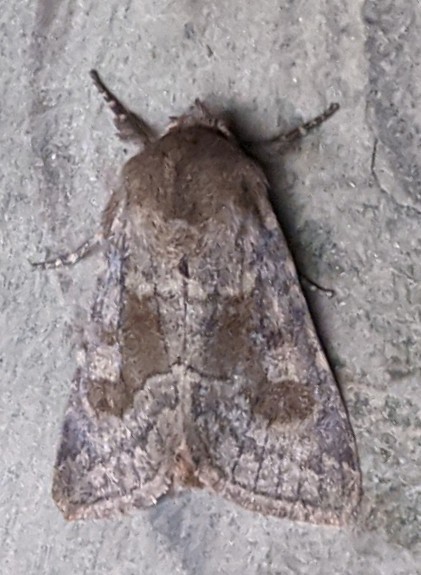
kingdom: Animalia
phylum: Arthropoda
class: Insecta
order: Lepidoptera
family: Noctuidae
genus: Nephelodes
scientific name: Nephelodes minians
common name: Bronzed cutworm
